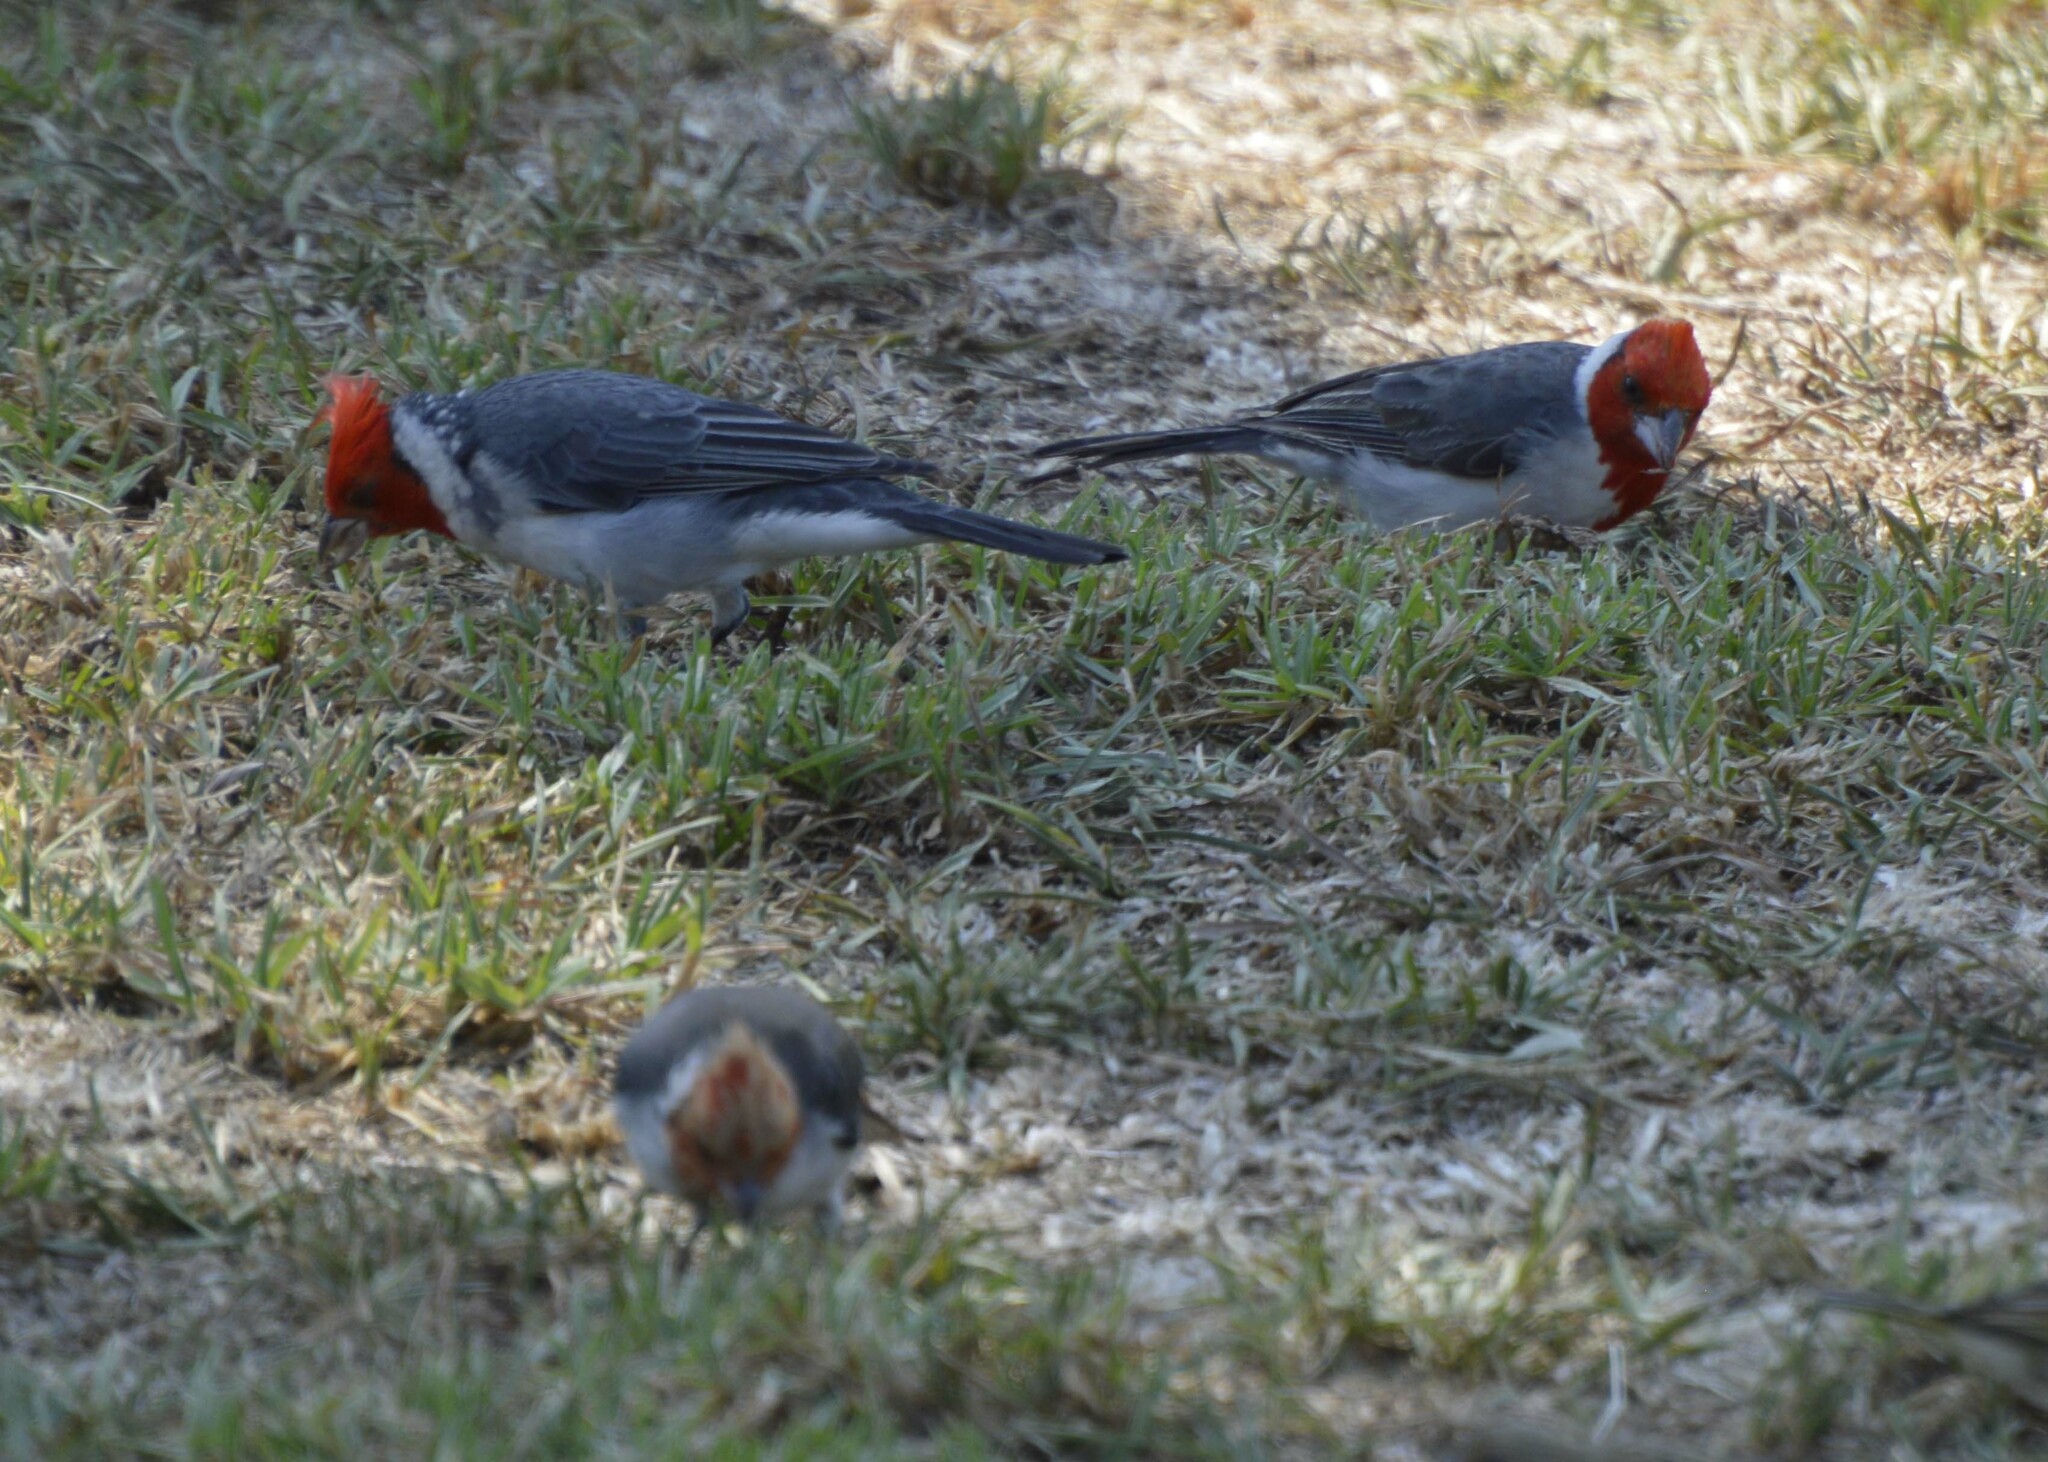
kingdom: Animalia
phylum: Chordata
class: Aves
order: Passeriformes
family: Thraupidae
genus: Paroaria
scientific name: Paroaria coronata
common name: Red-crested cardinal
